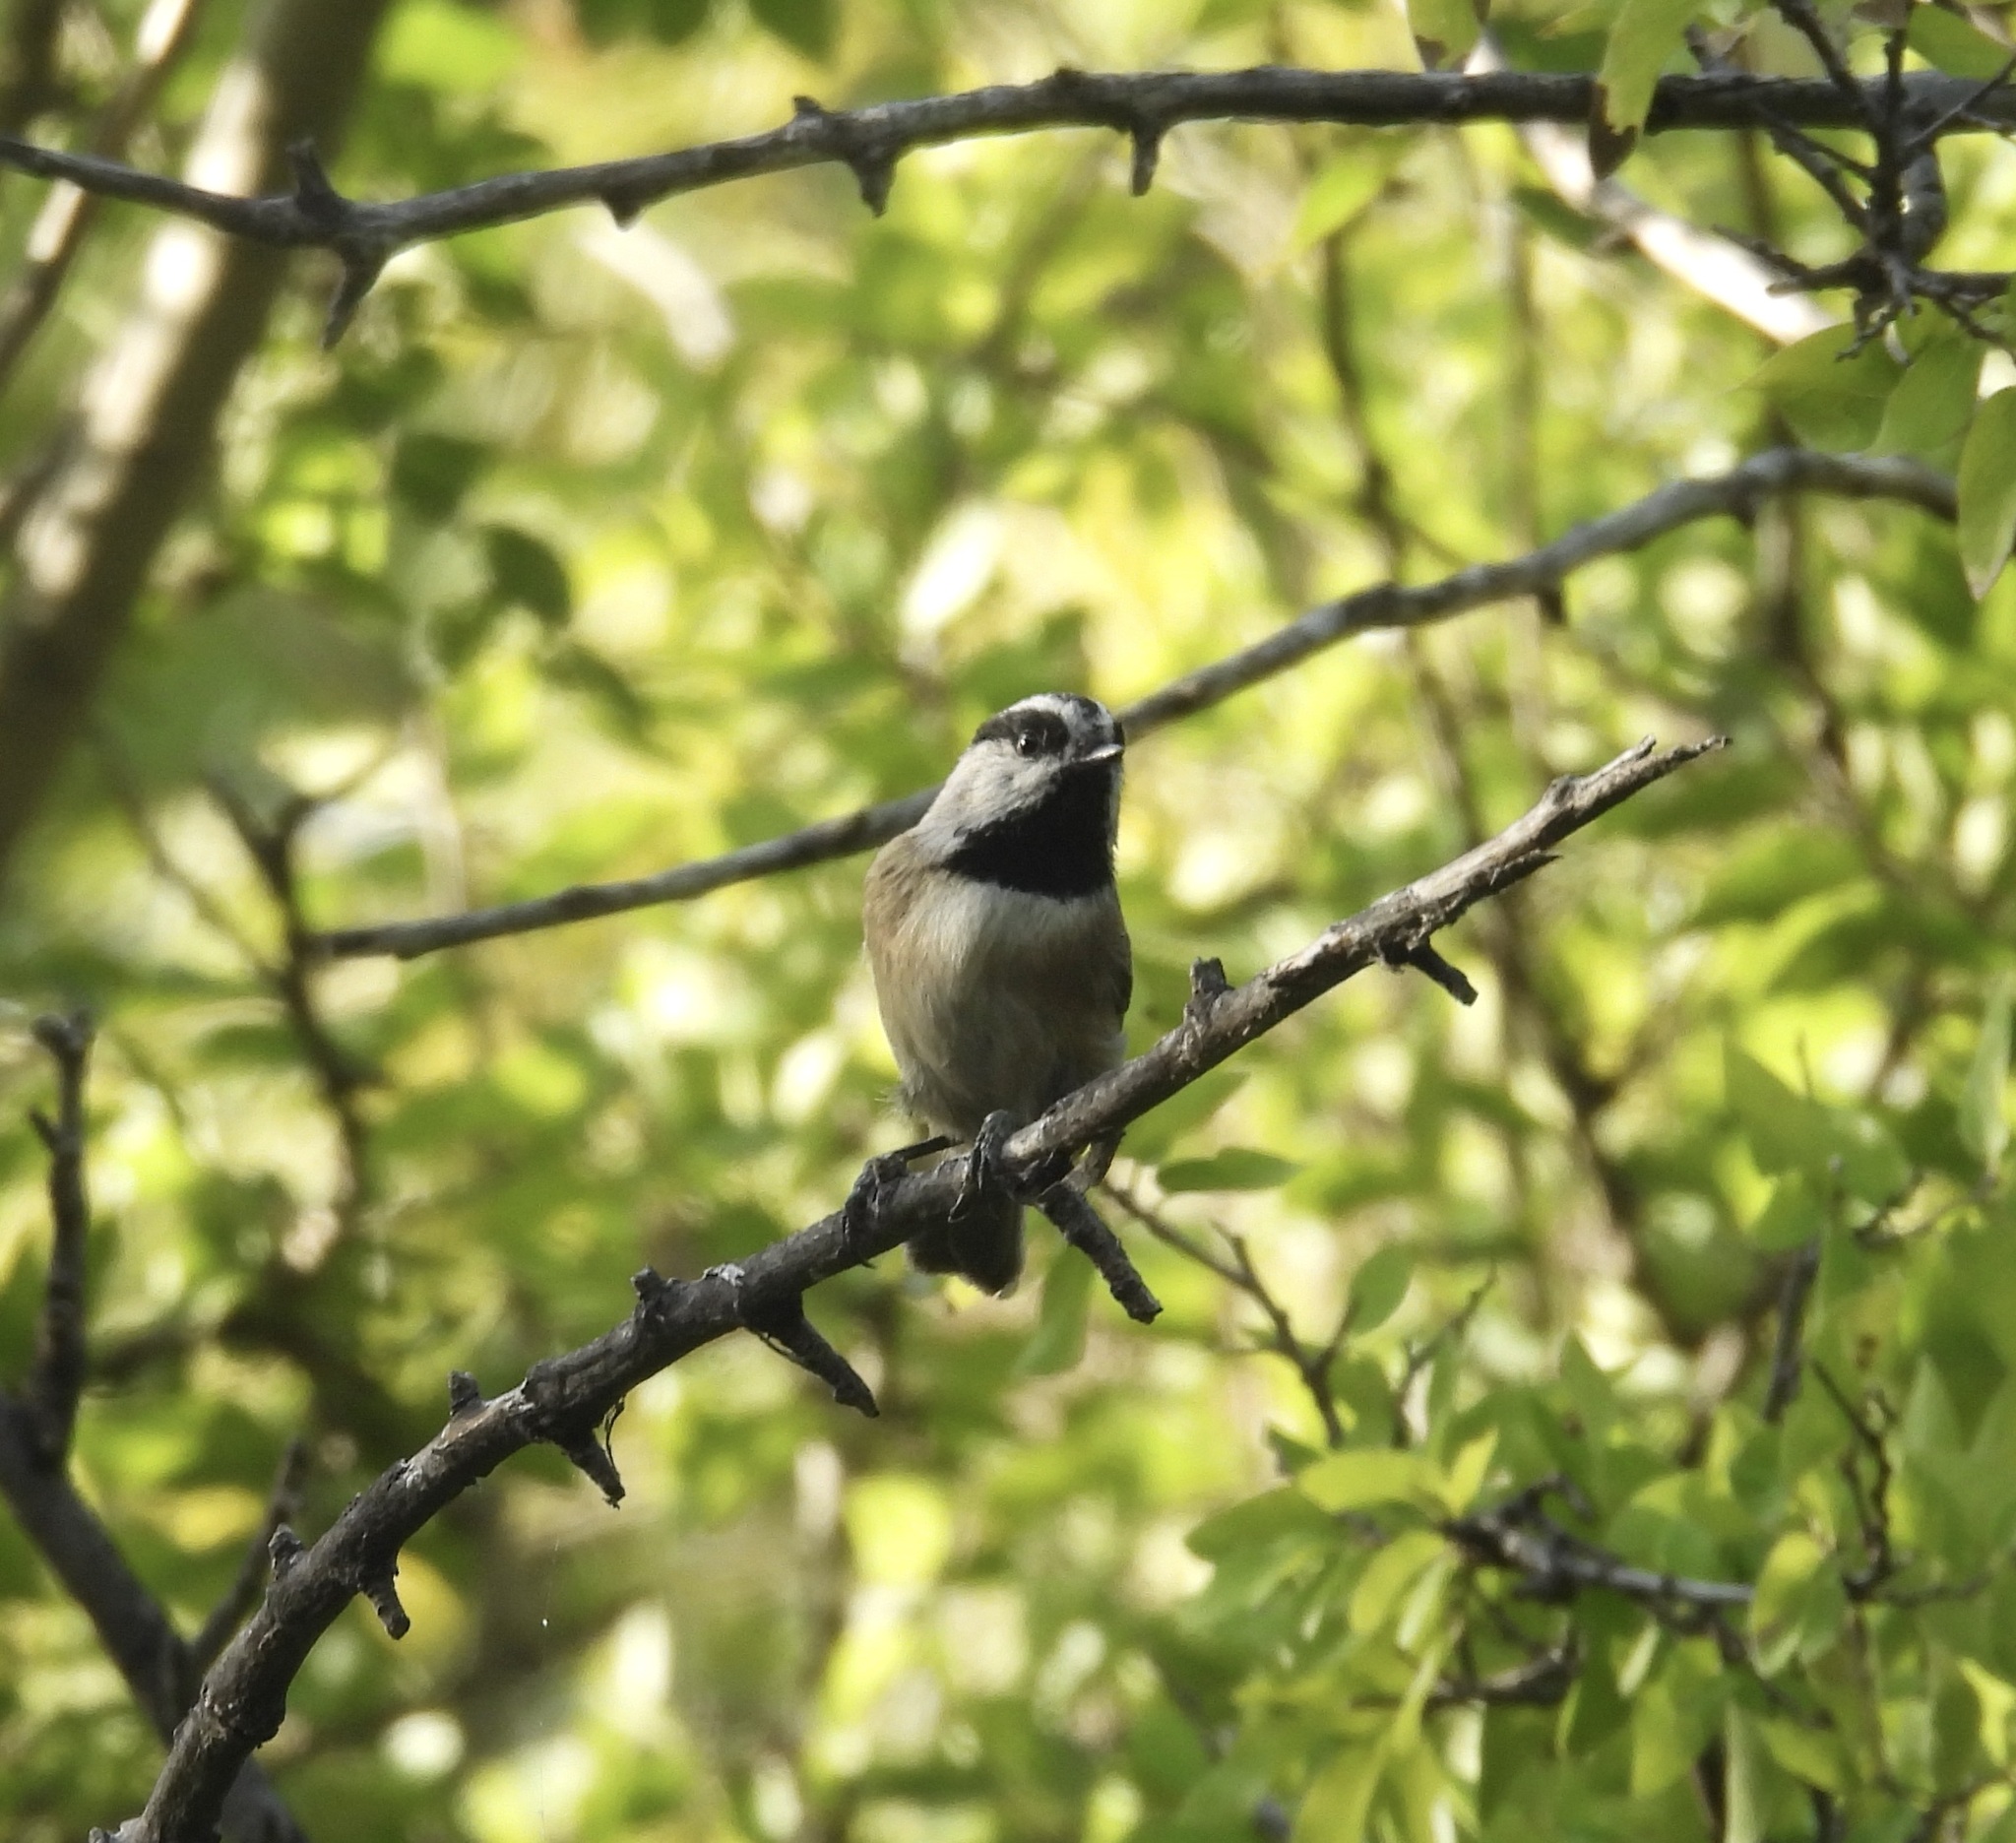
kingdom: Animalia
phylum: Chordata
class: Aves
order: Passeriformes
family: Paridae
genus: Poecile
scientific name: Poecile gambeli
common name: Mountain chickadee
